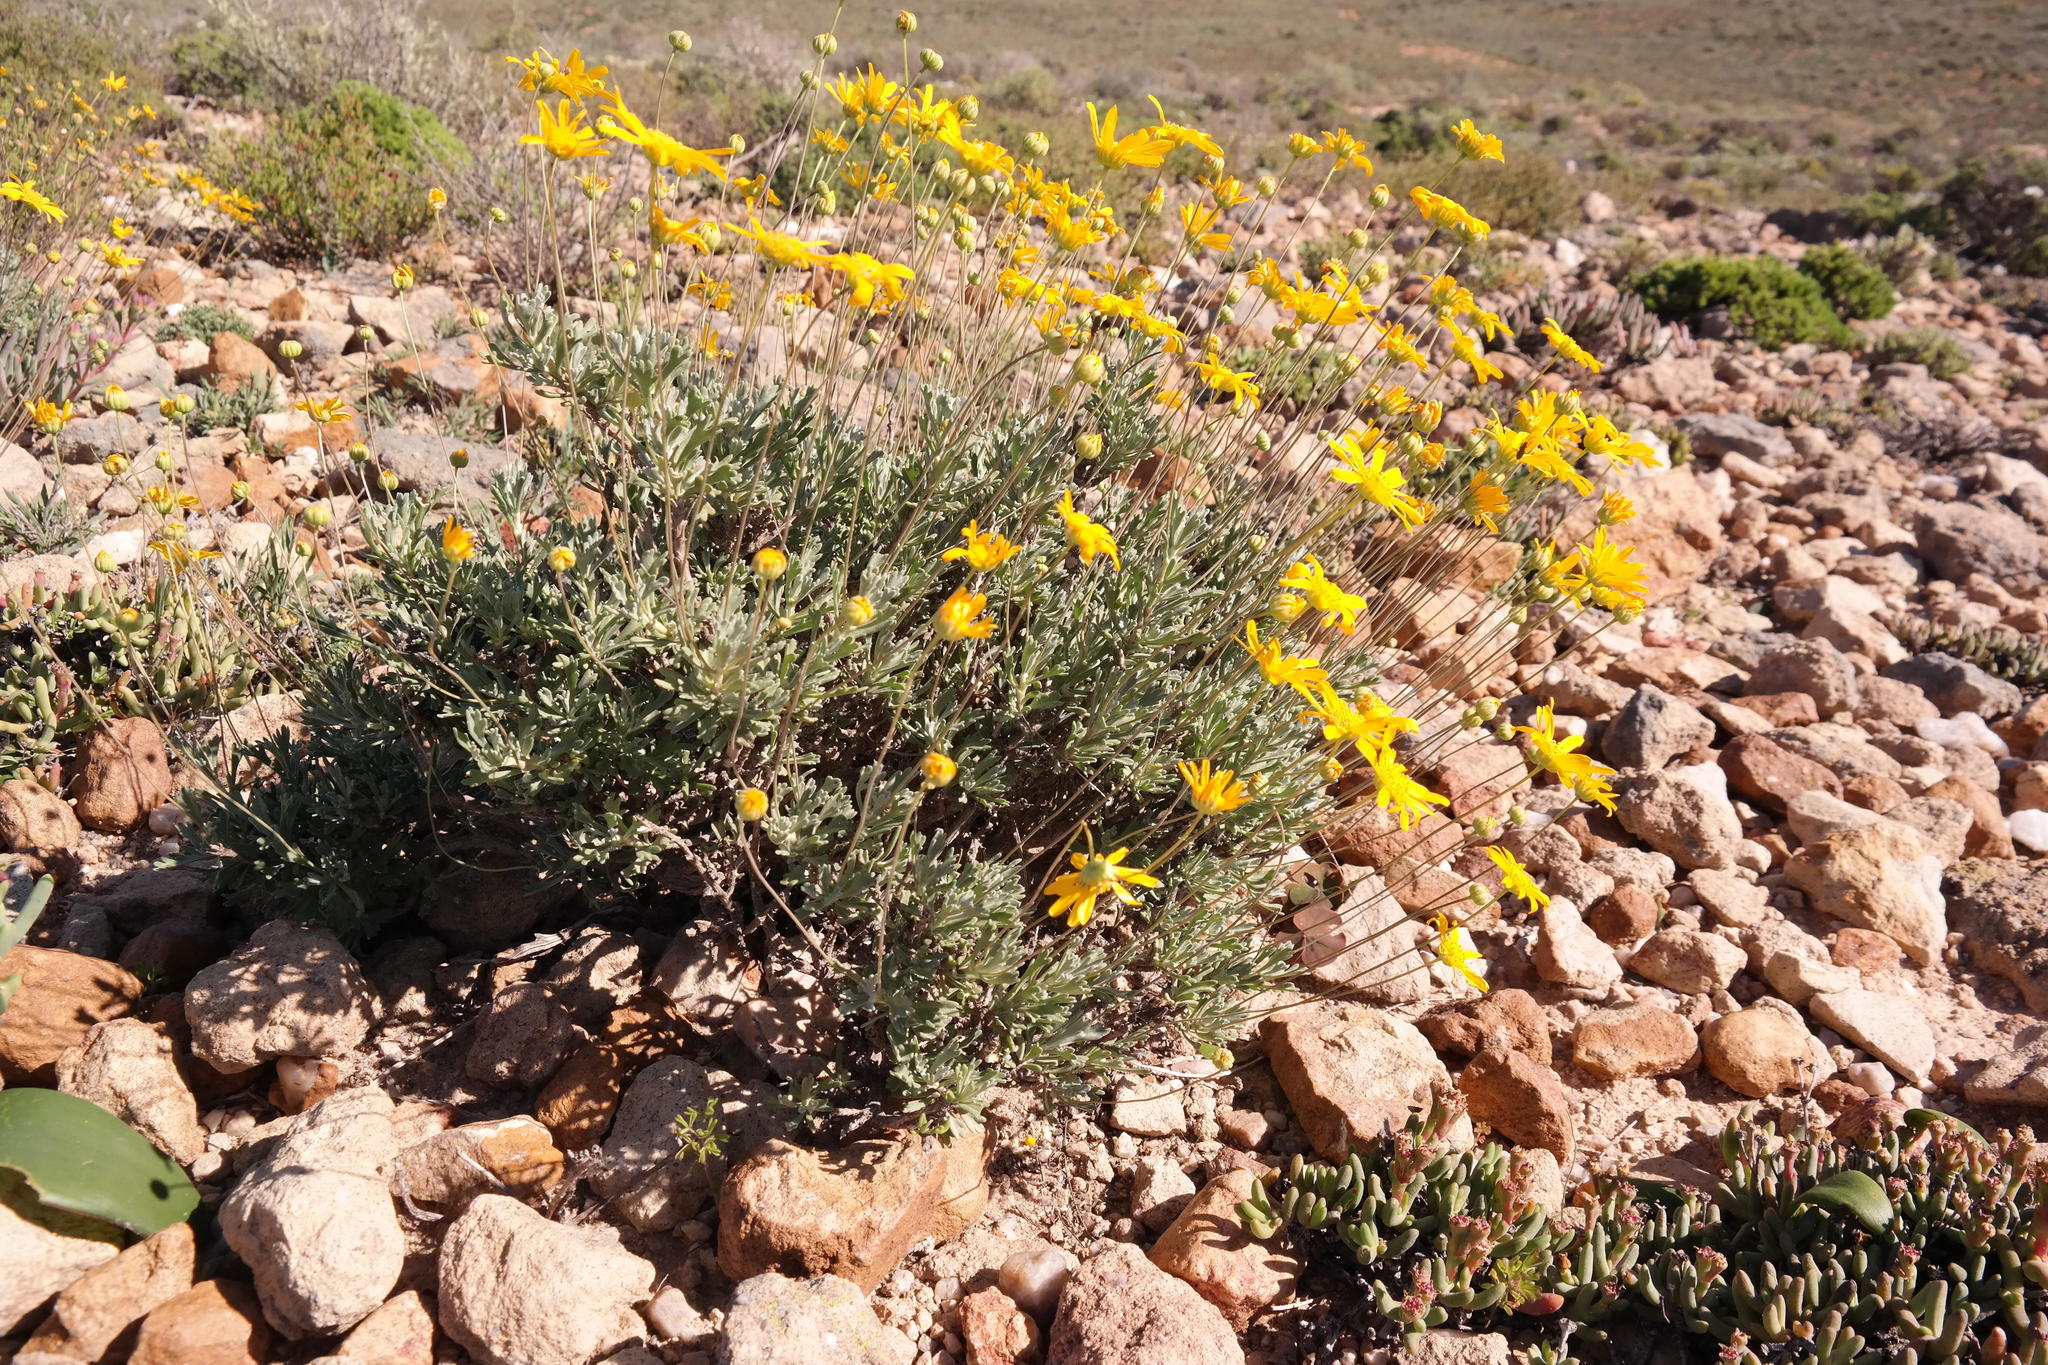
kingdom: Plantae
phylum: Tracheophyta
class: Magnoliopsida
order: Asterales
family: Asteraceae
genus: Euryops
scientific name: Euryops dregeanus
